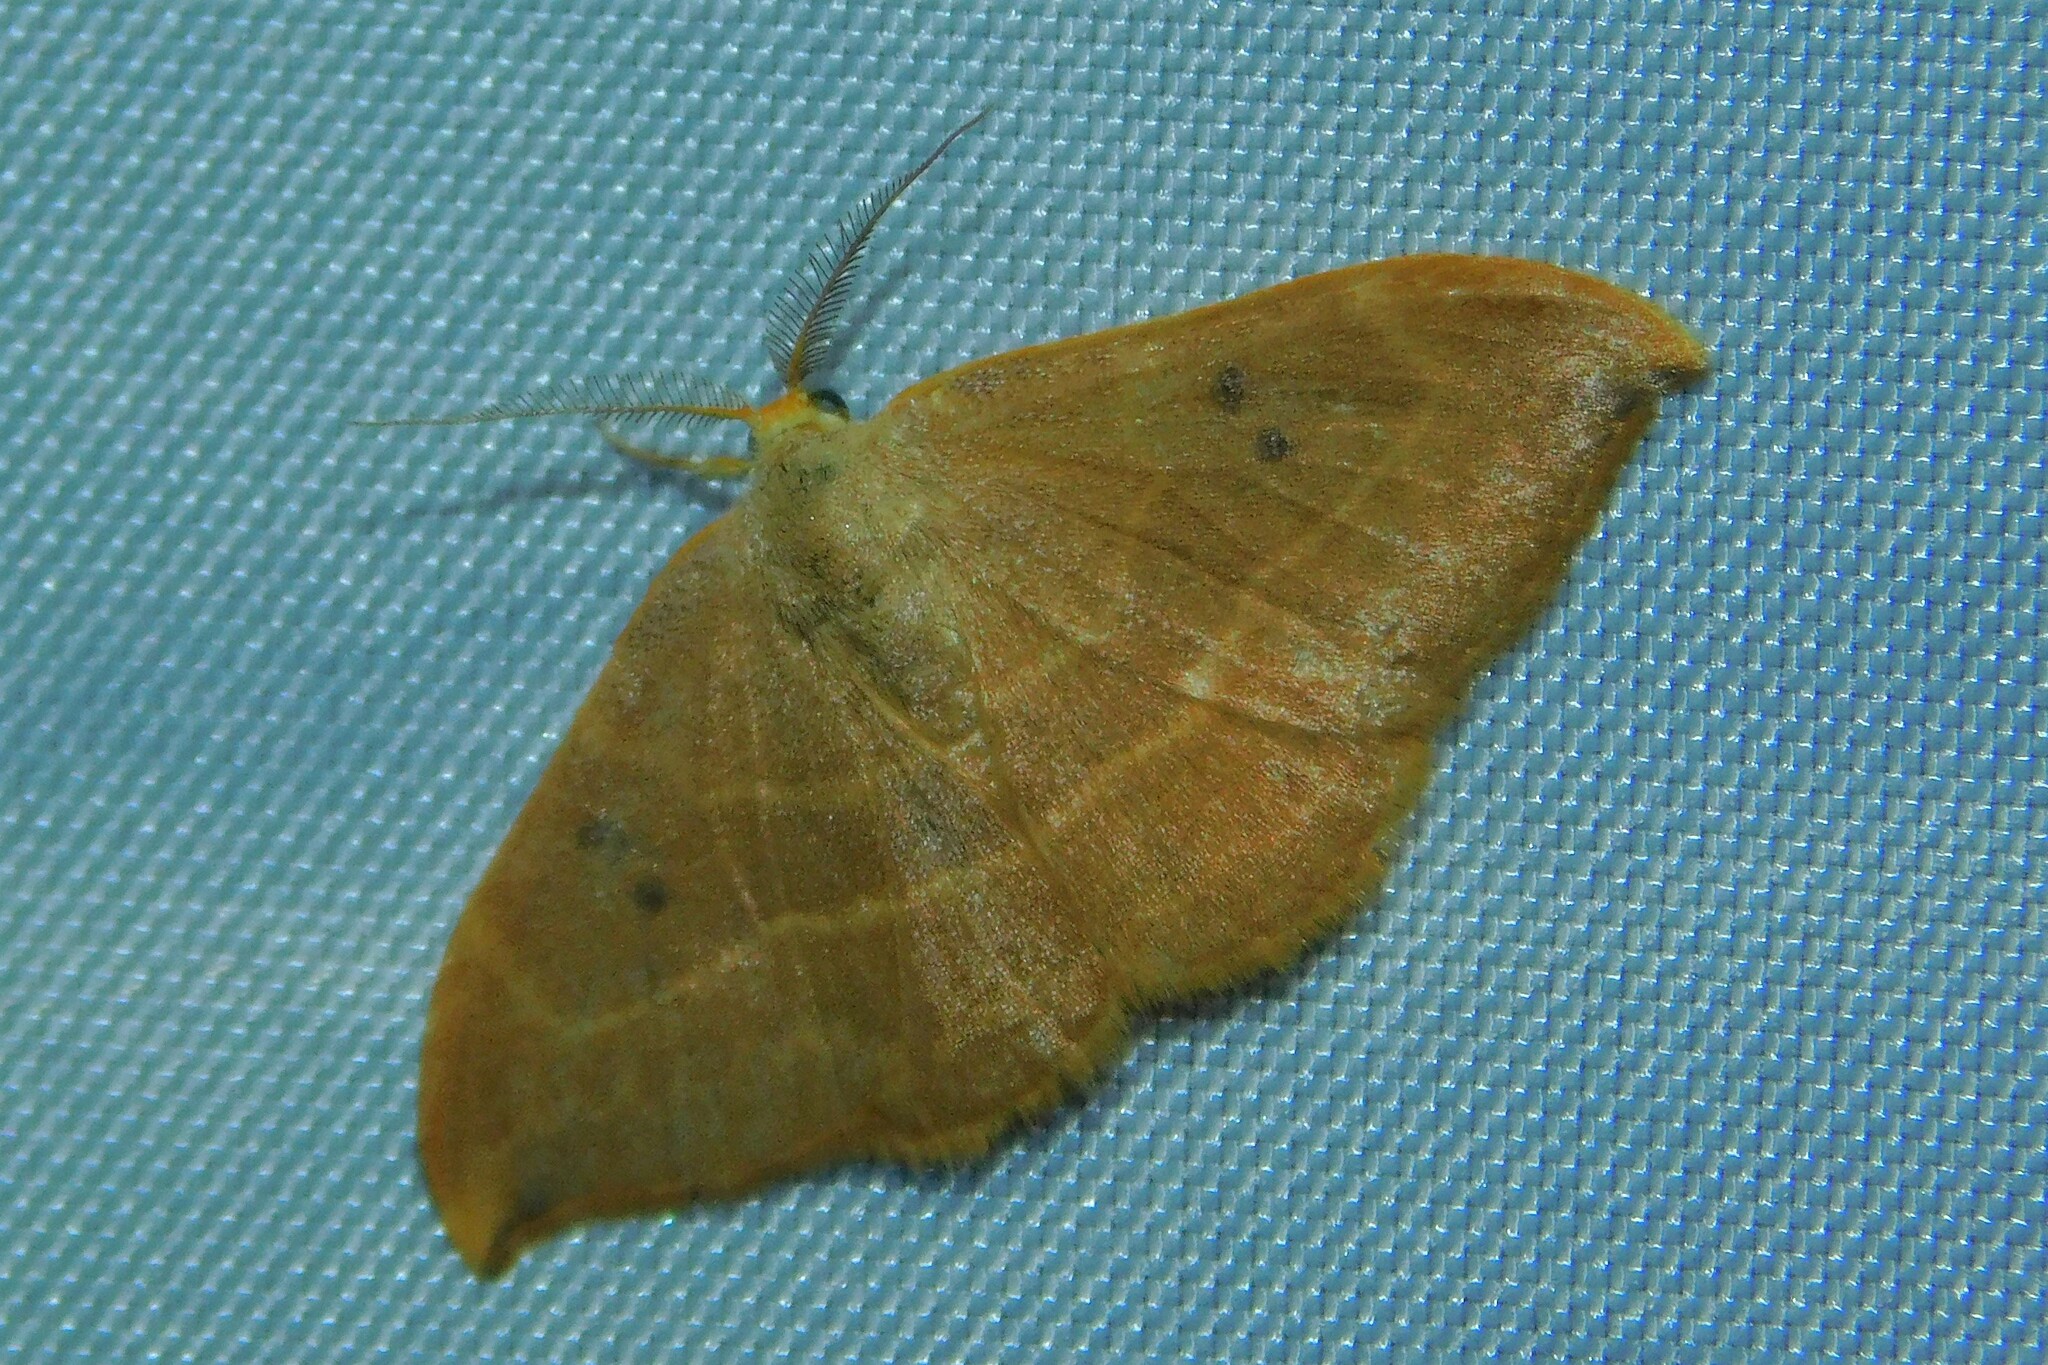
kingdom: Animalia
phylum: Arthropoda
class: Insecta
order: Lepidoptera
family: Drepanidae
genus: Watsonalla
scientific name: Watsonalla binaria
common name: Oak hook-tip
